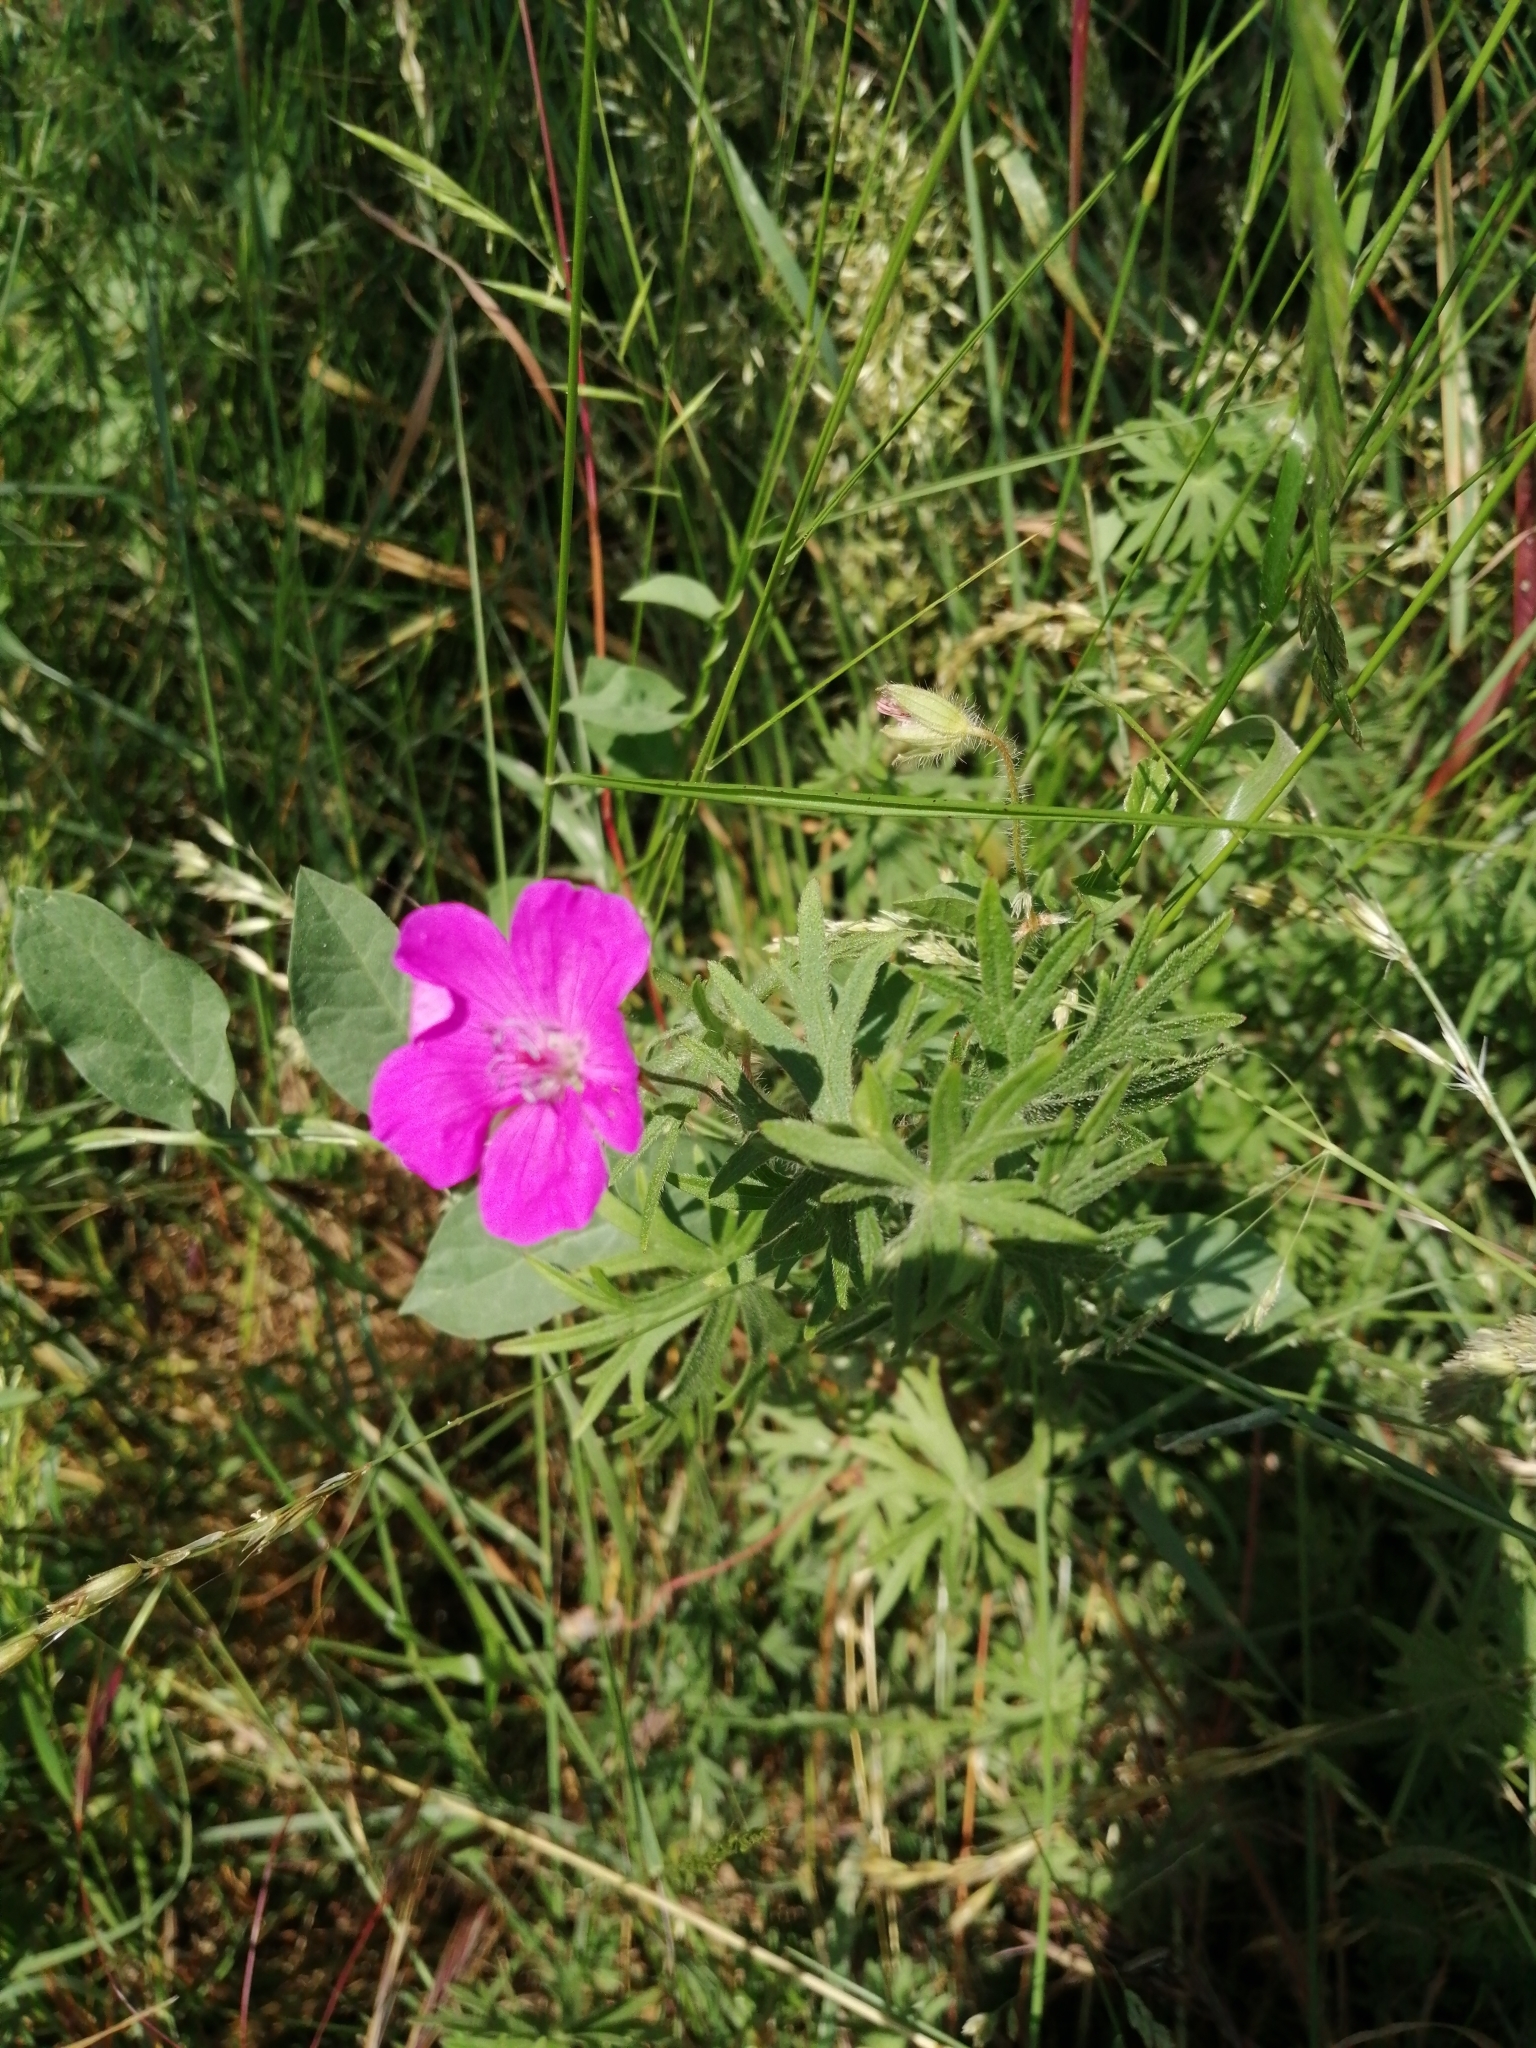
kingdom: Plantae
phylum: Tracheophyta
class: Magnoliopsida
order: Geraniales
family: Geraniaceae
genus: Geranium
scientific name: Geranium sanguineum
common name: Bloody crane's-bill
